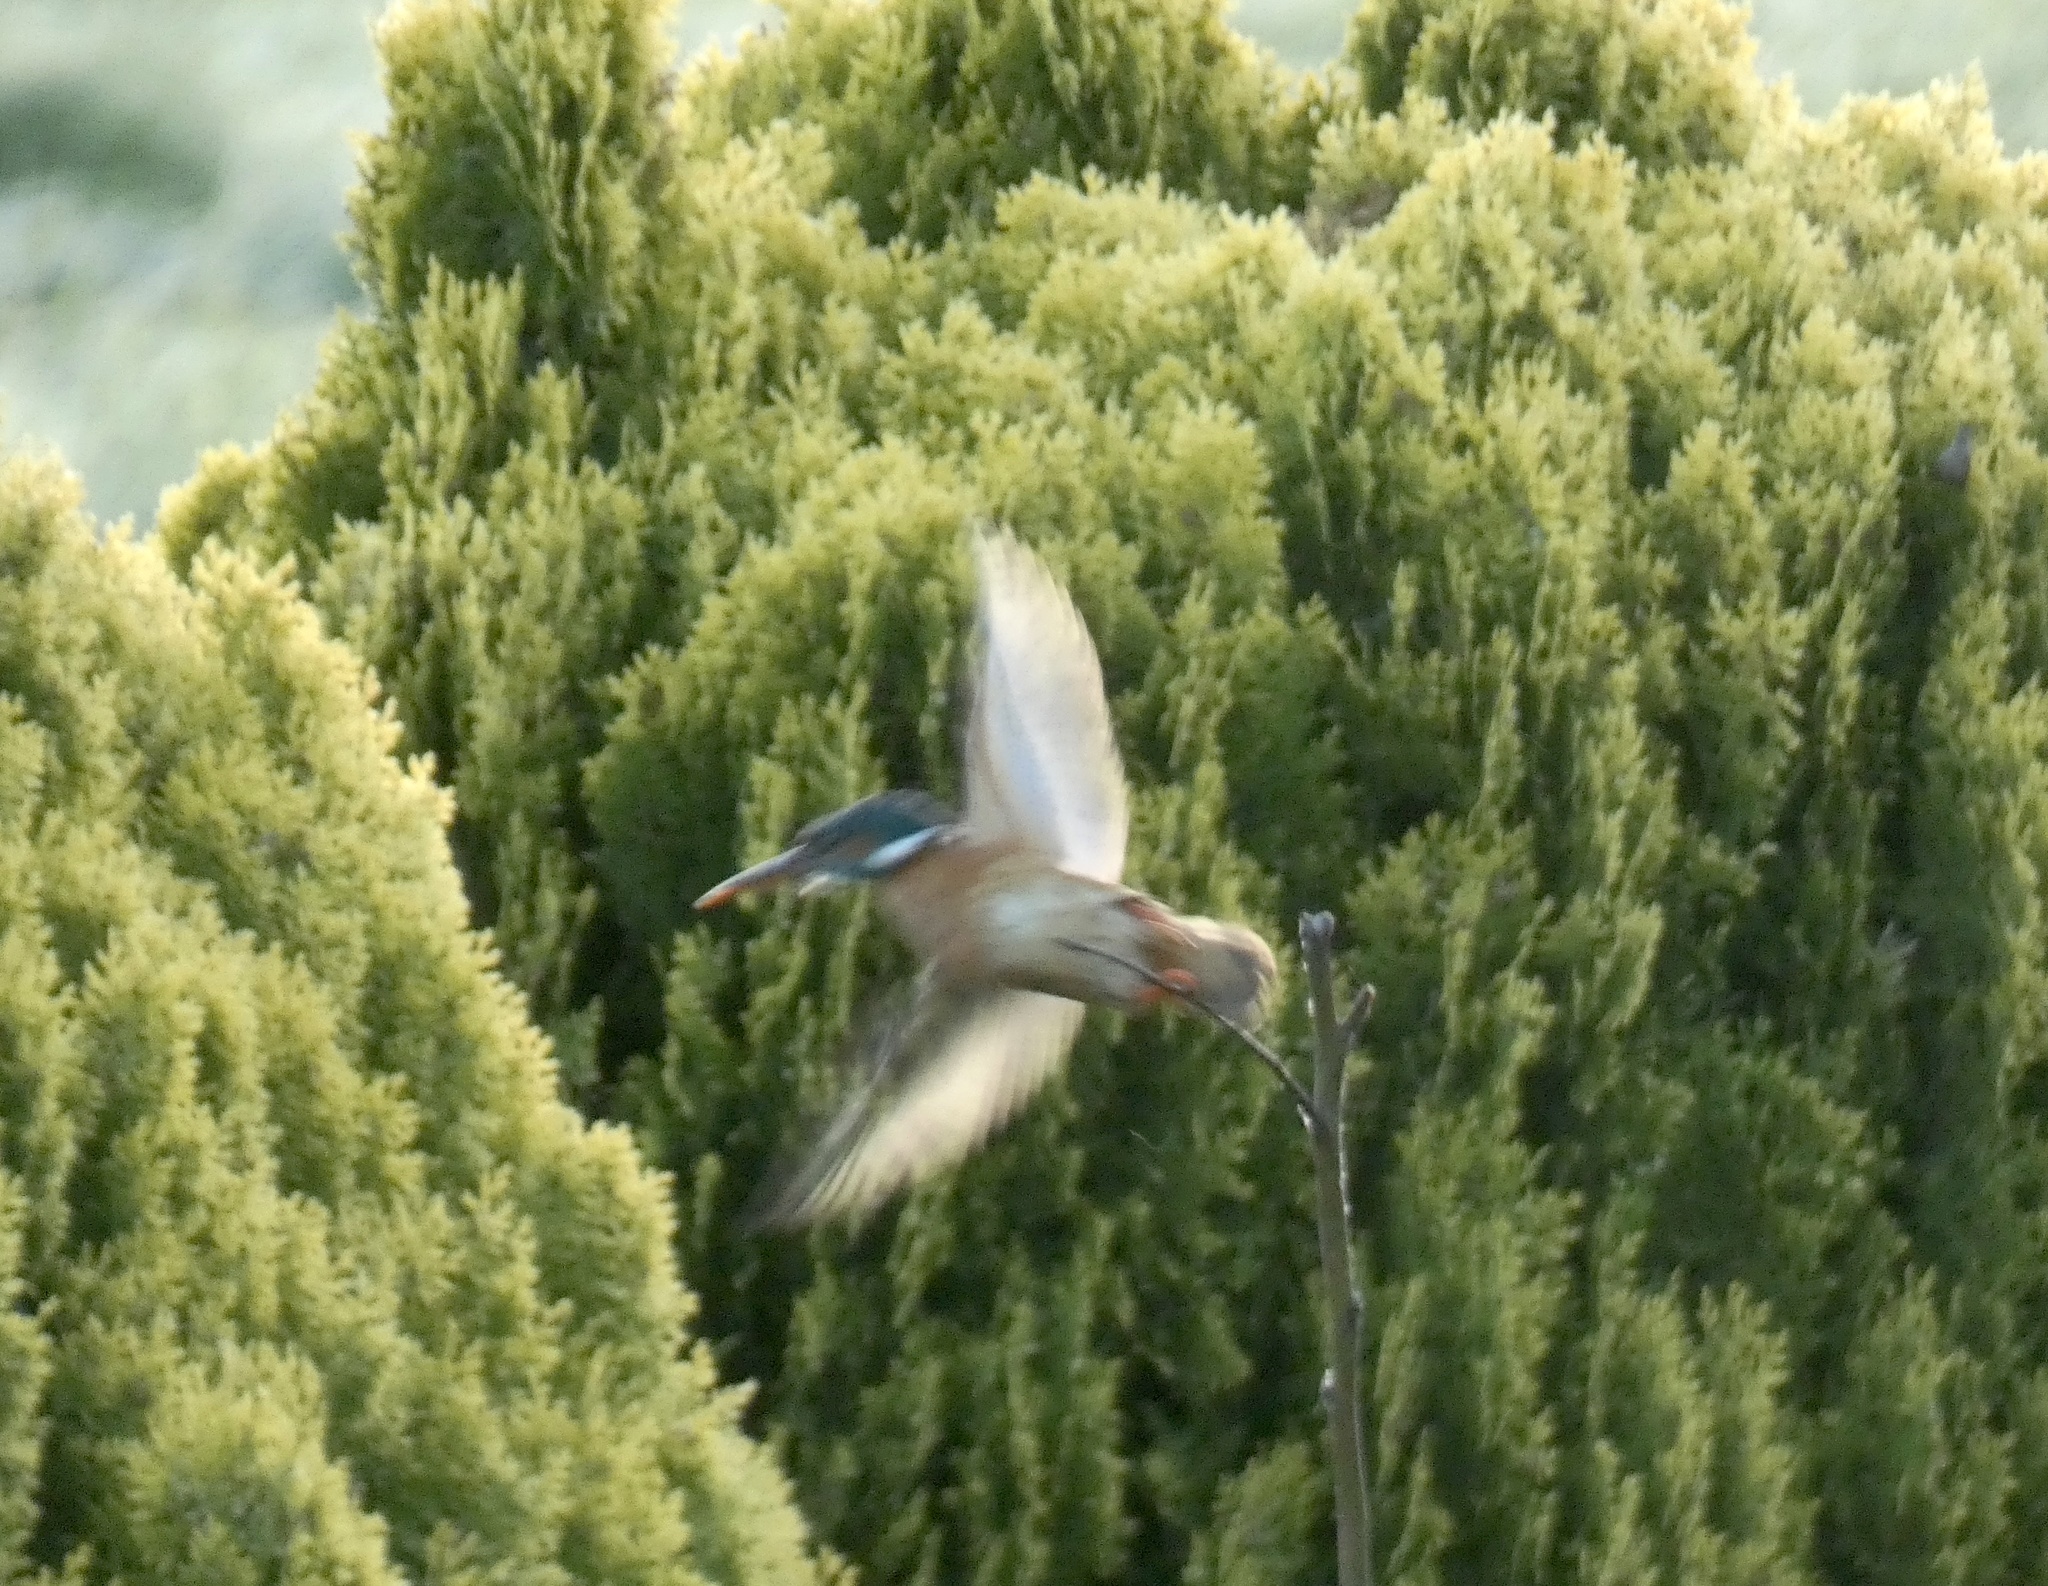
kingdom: Animalia
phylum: Chordata
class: Aves
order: Coraciiformes
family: Alcedinidae
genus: Alcedo
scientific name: Alcedo atthis
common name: Common kingfisher
